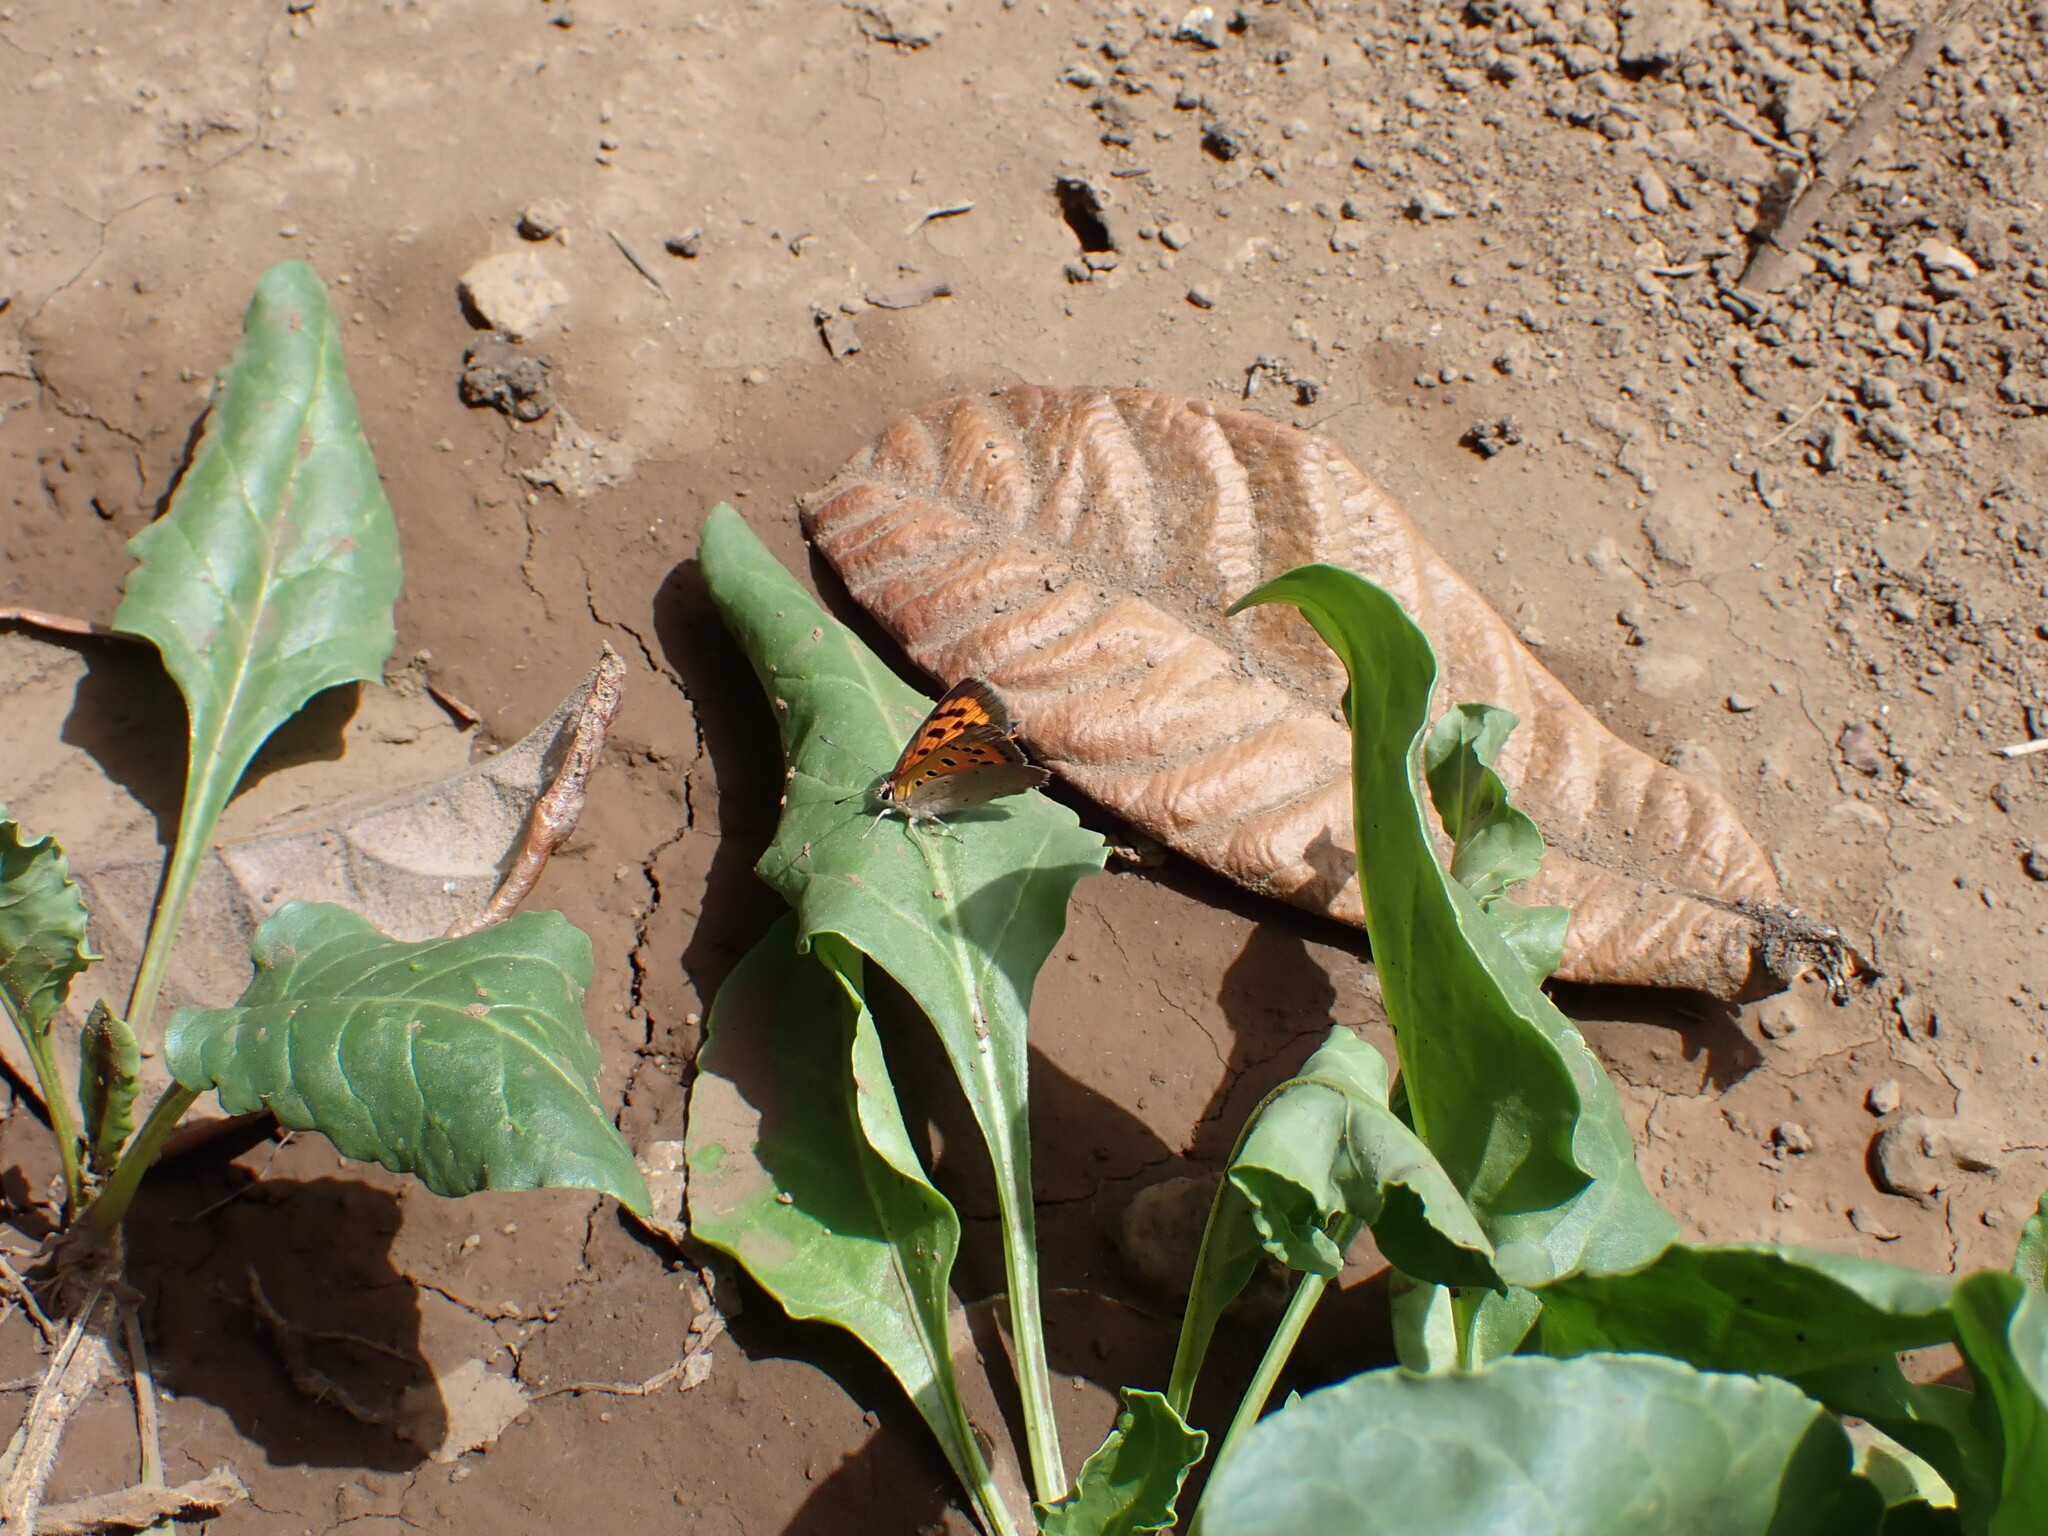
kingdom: Animalia
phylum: Arthropoda
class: Insecta
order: Lepidoptera
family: Lycaenidae
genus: Lycaena
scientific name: Lycaena phlaeas
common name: Small copper
